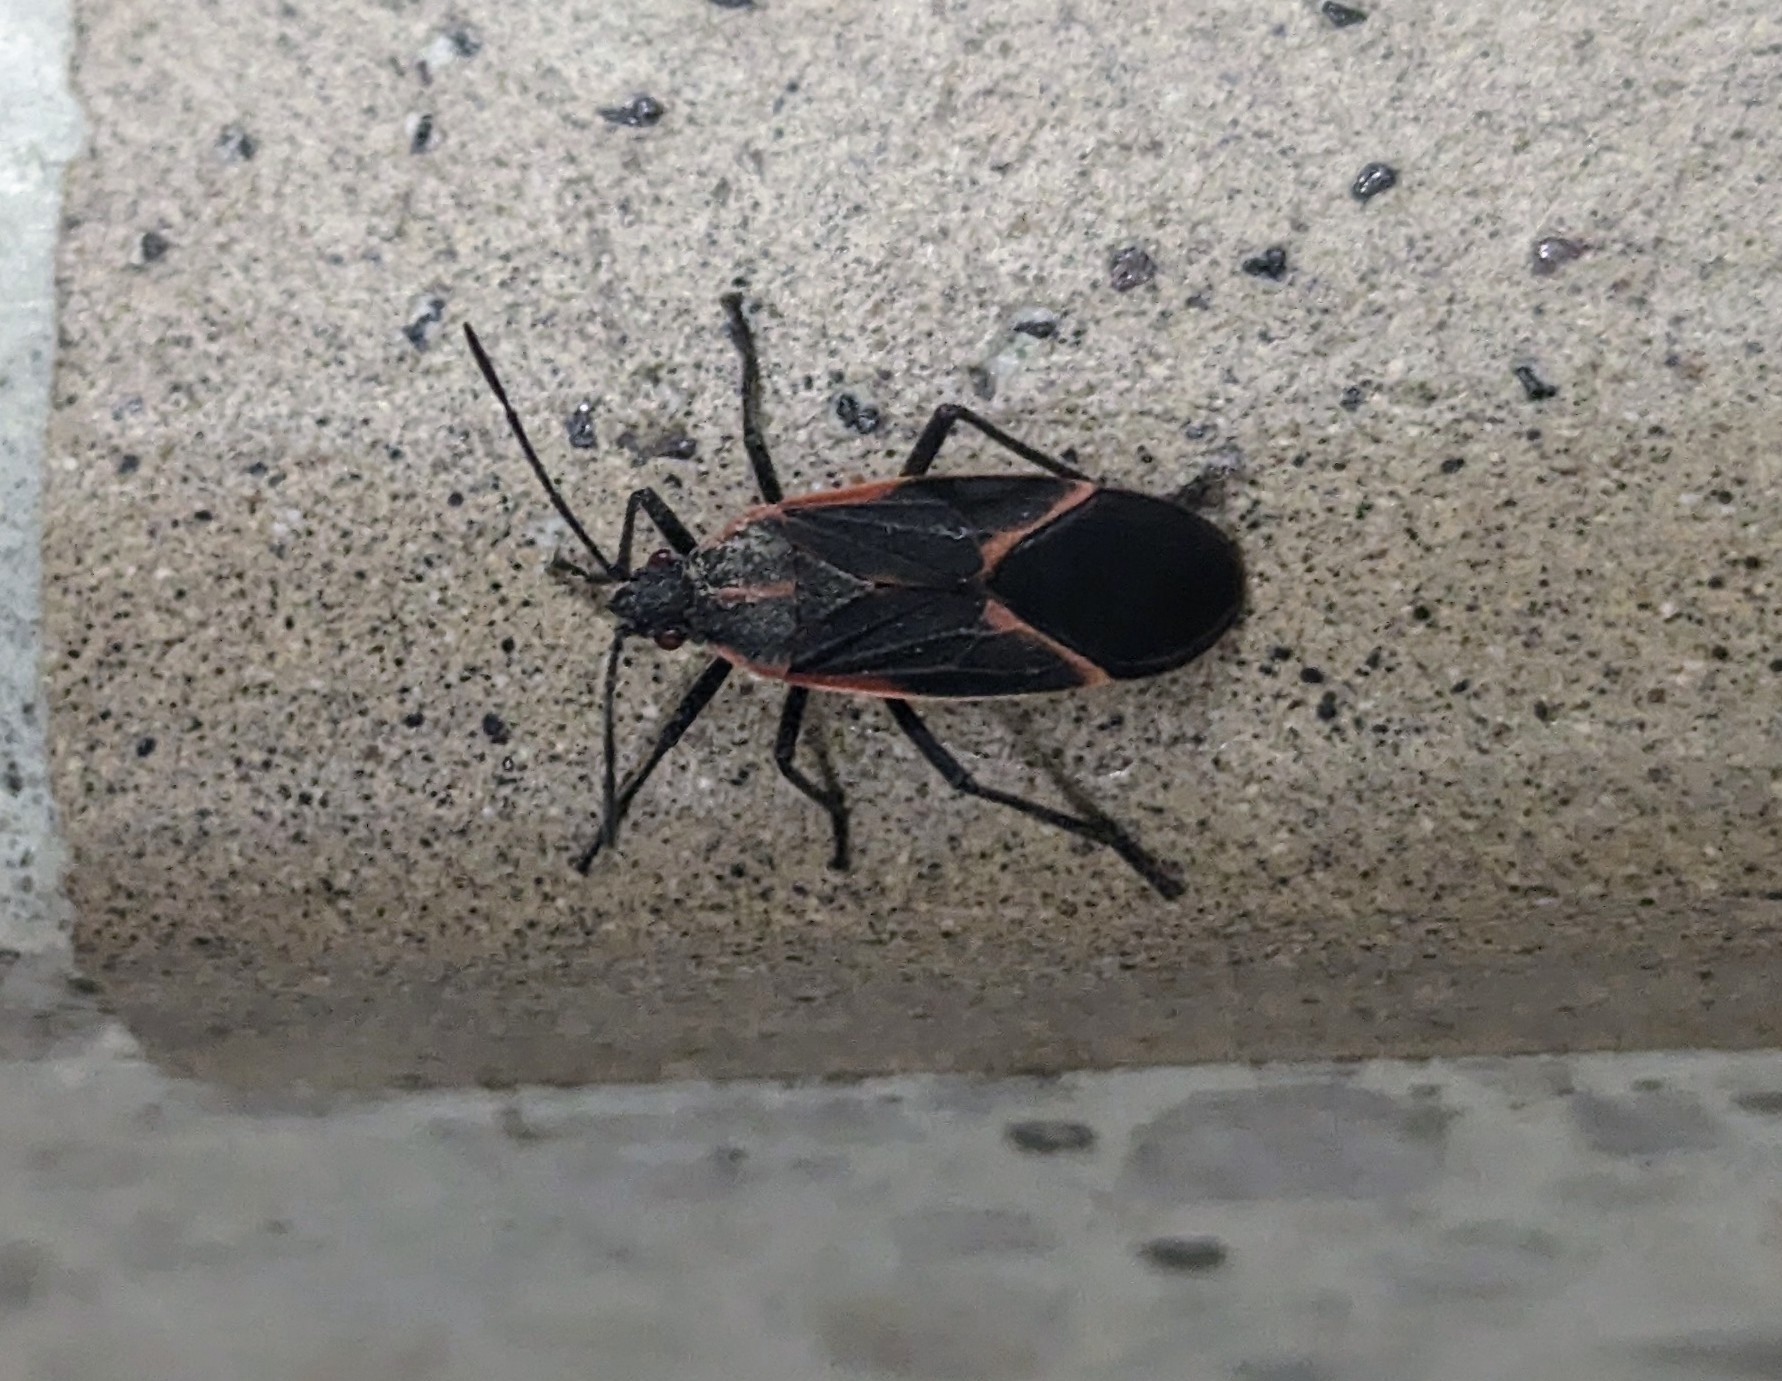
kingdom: Animalia
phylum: Arthropoda
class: Insecta
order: Hemiptera
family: Rhopalidae
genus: Boisea
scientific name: Boisea trivittata
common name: Boxelder bug
